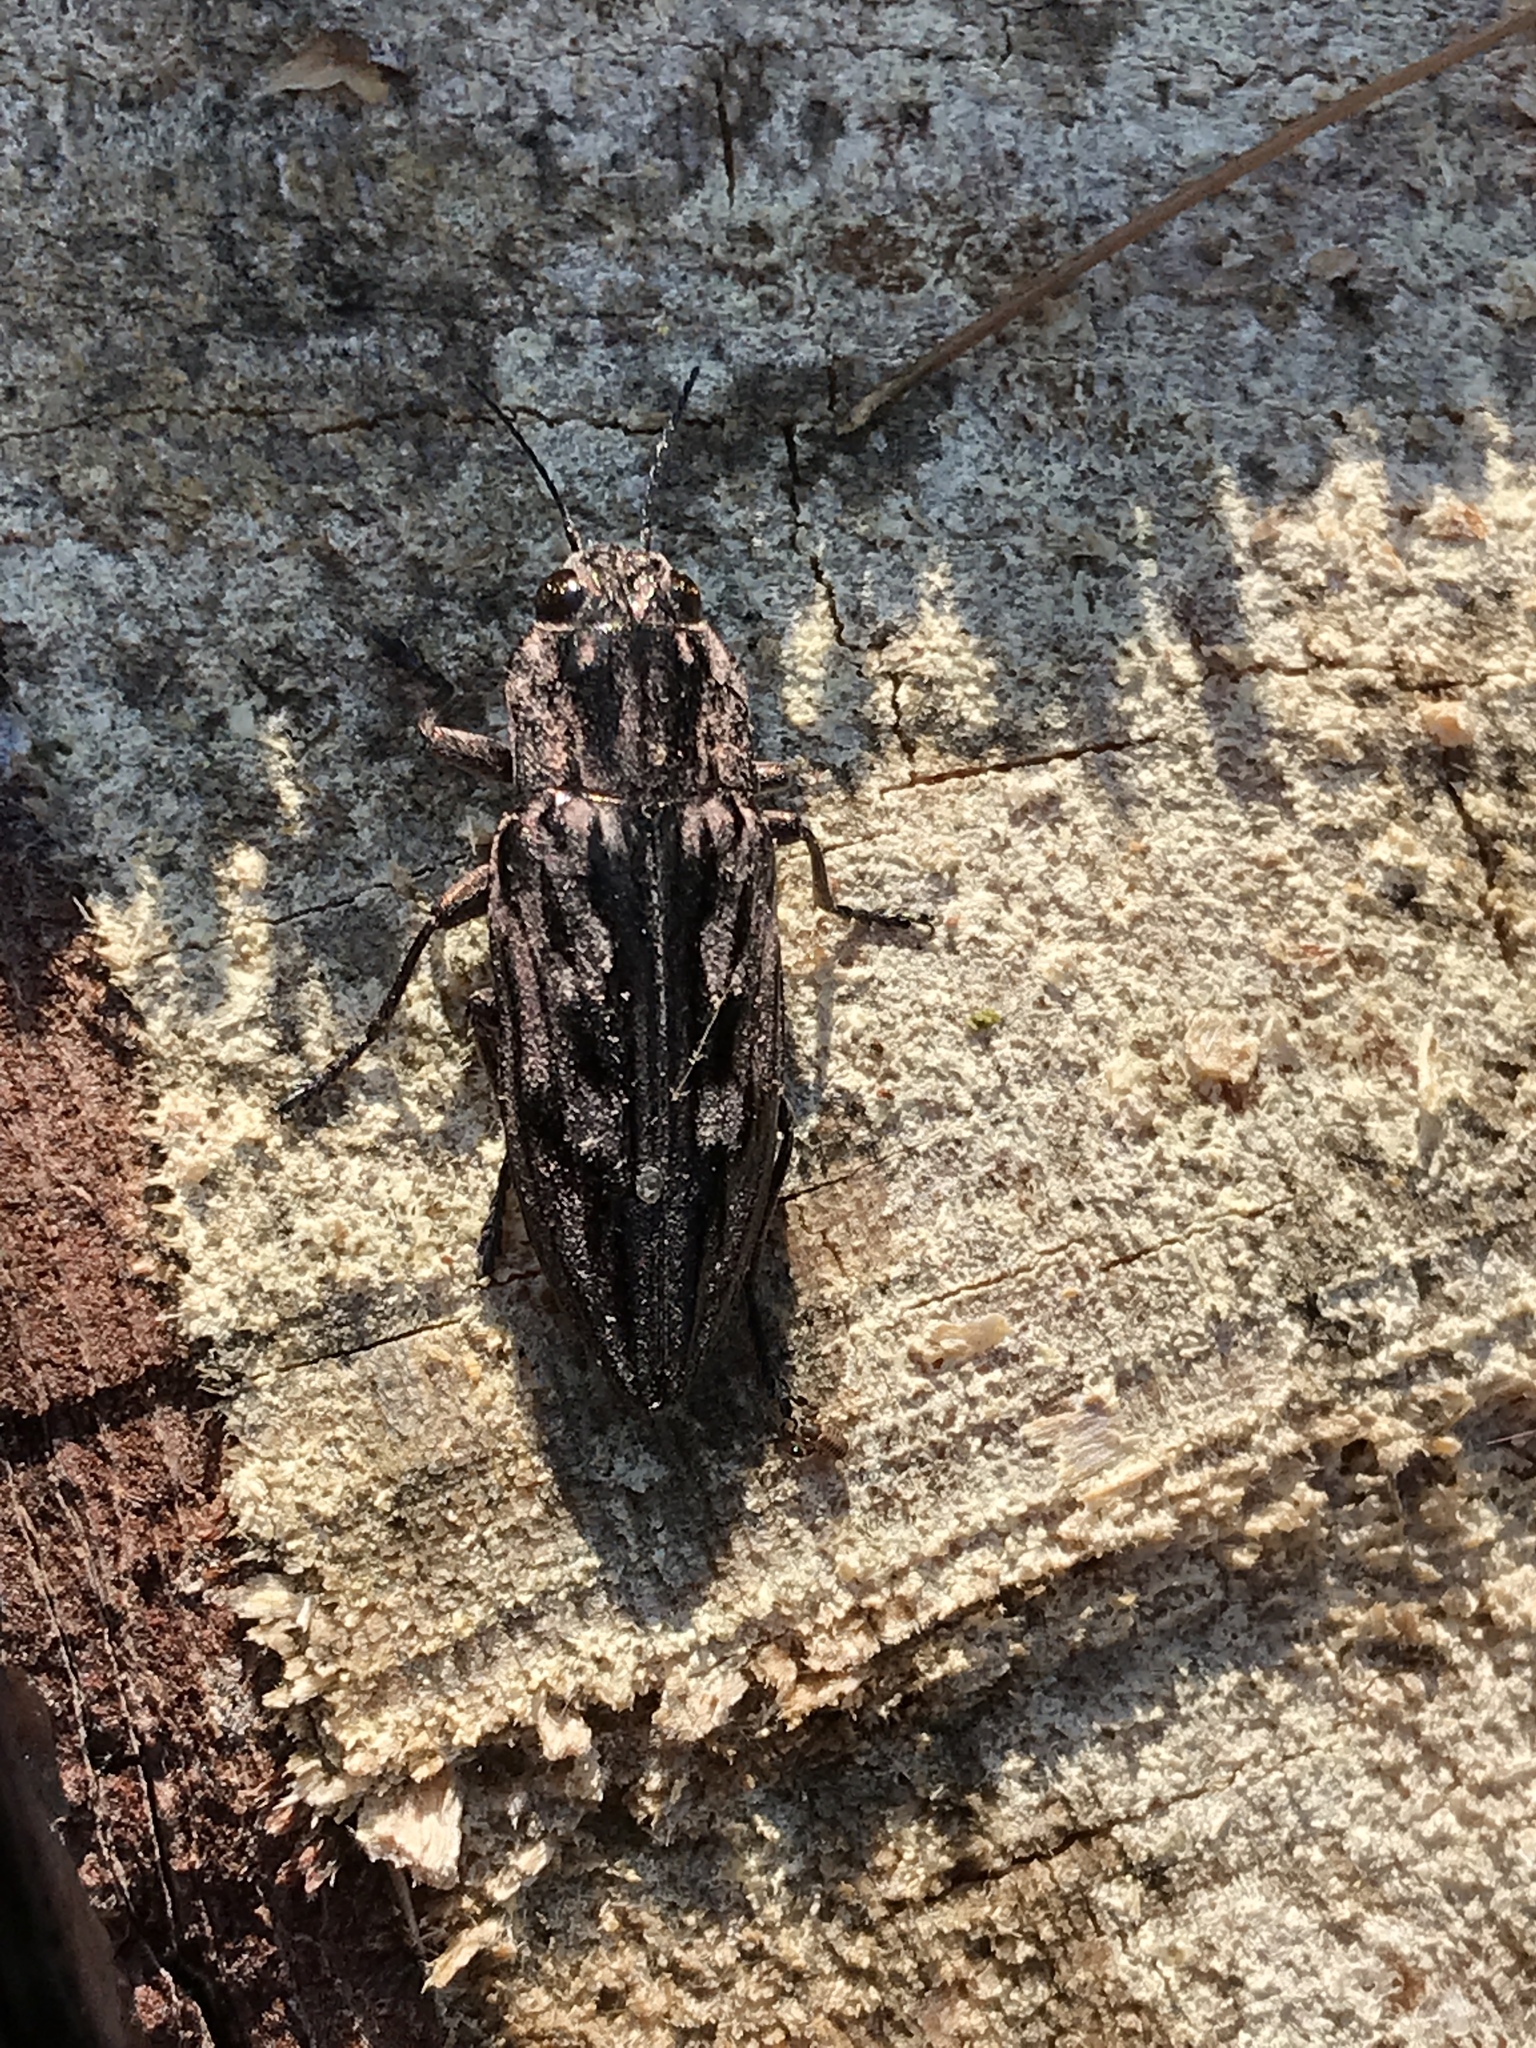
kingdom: Animalia
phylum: Arthropoda
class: Insecta
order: Coleoptera
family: Buprestidae
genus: Chalcophora
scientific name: Chalcophora virginiensis
